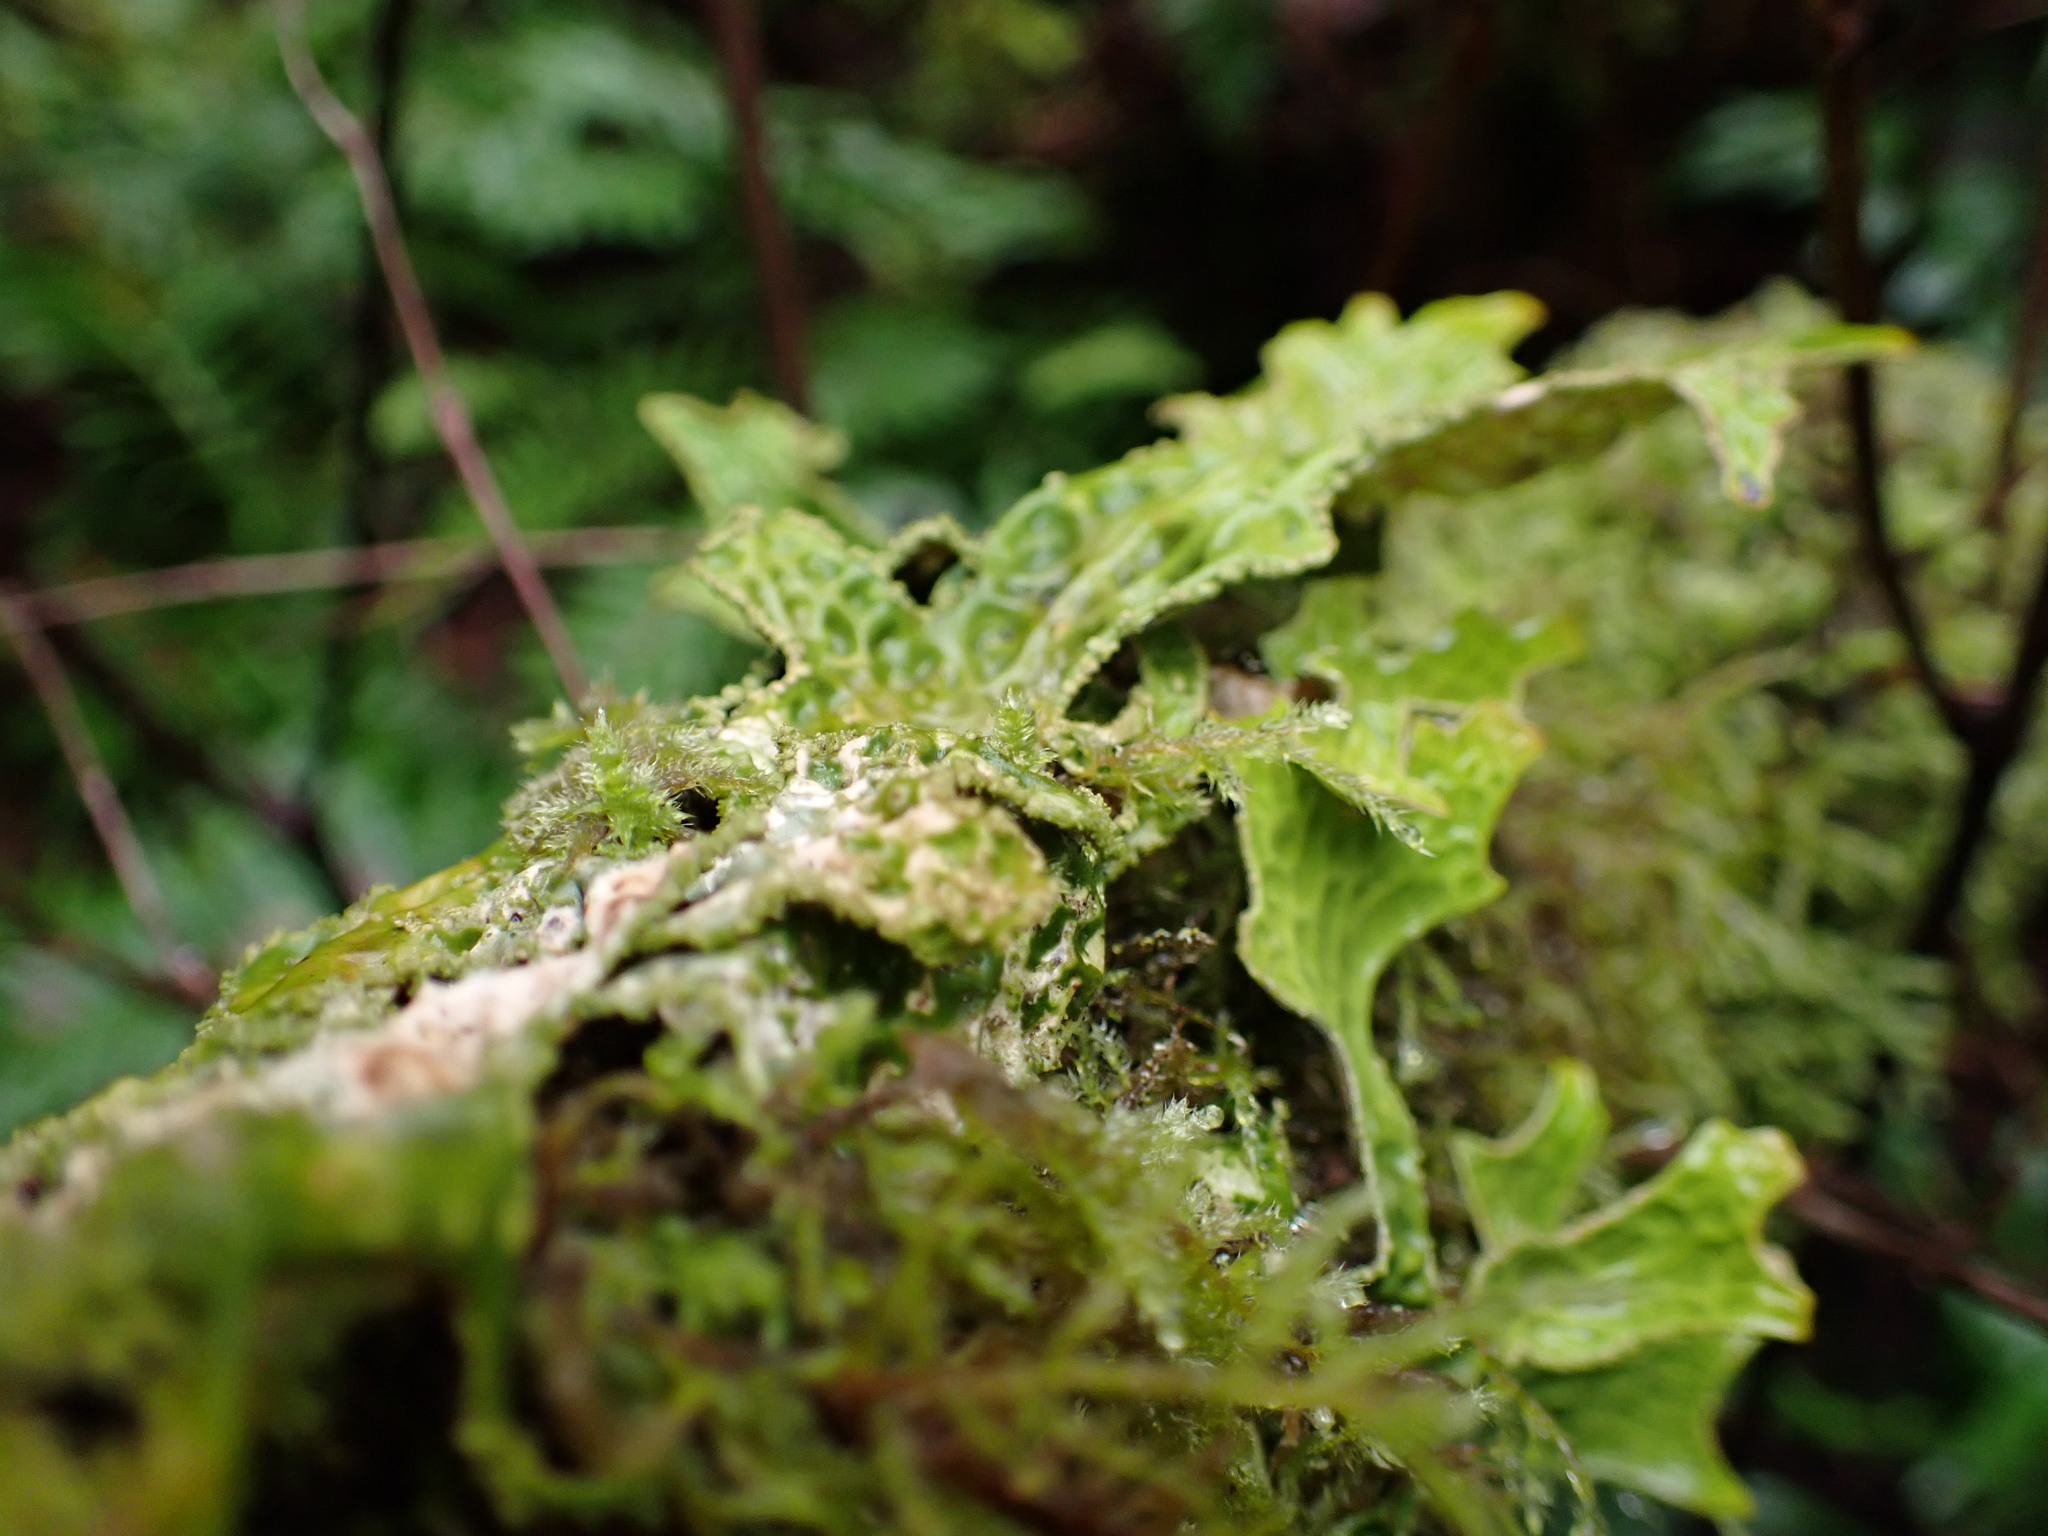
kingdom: Fungi
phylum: Ascomycota
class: Lecanoromycetes
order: Peltigerales
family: Lobariaceae
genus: Lobaria
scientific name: Lobaria pulmonaria
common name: Lungwort
